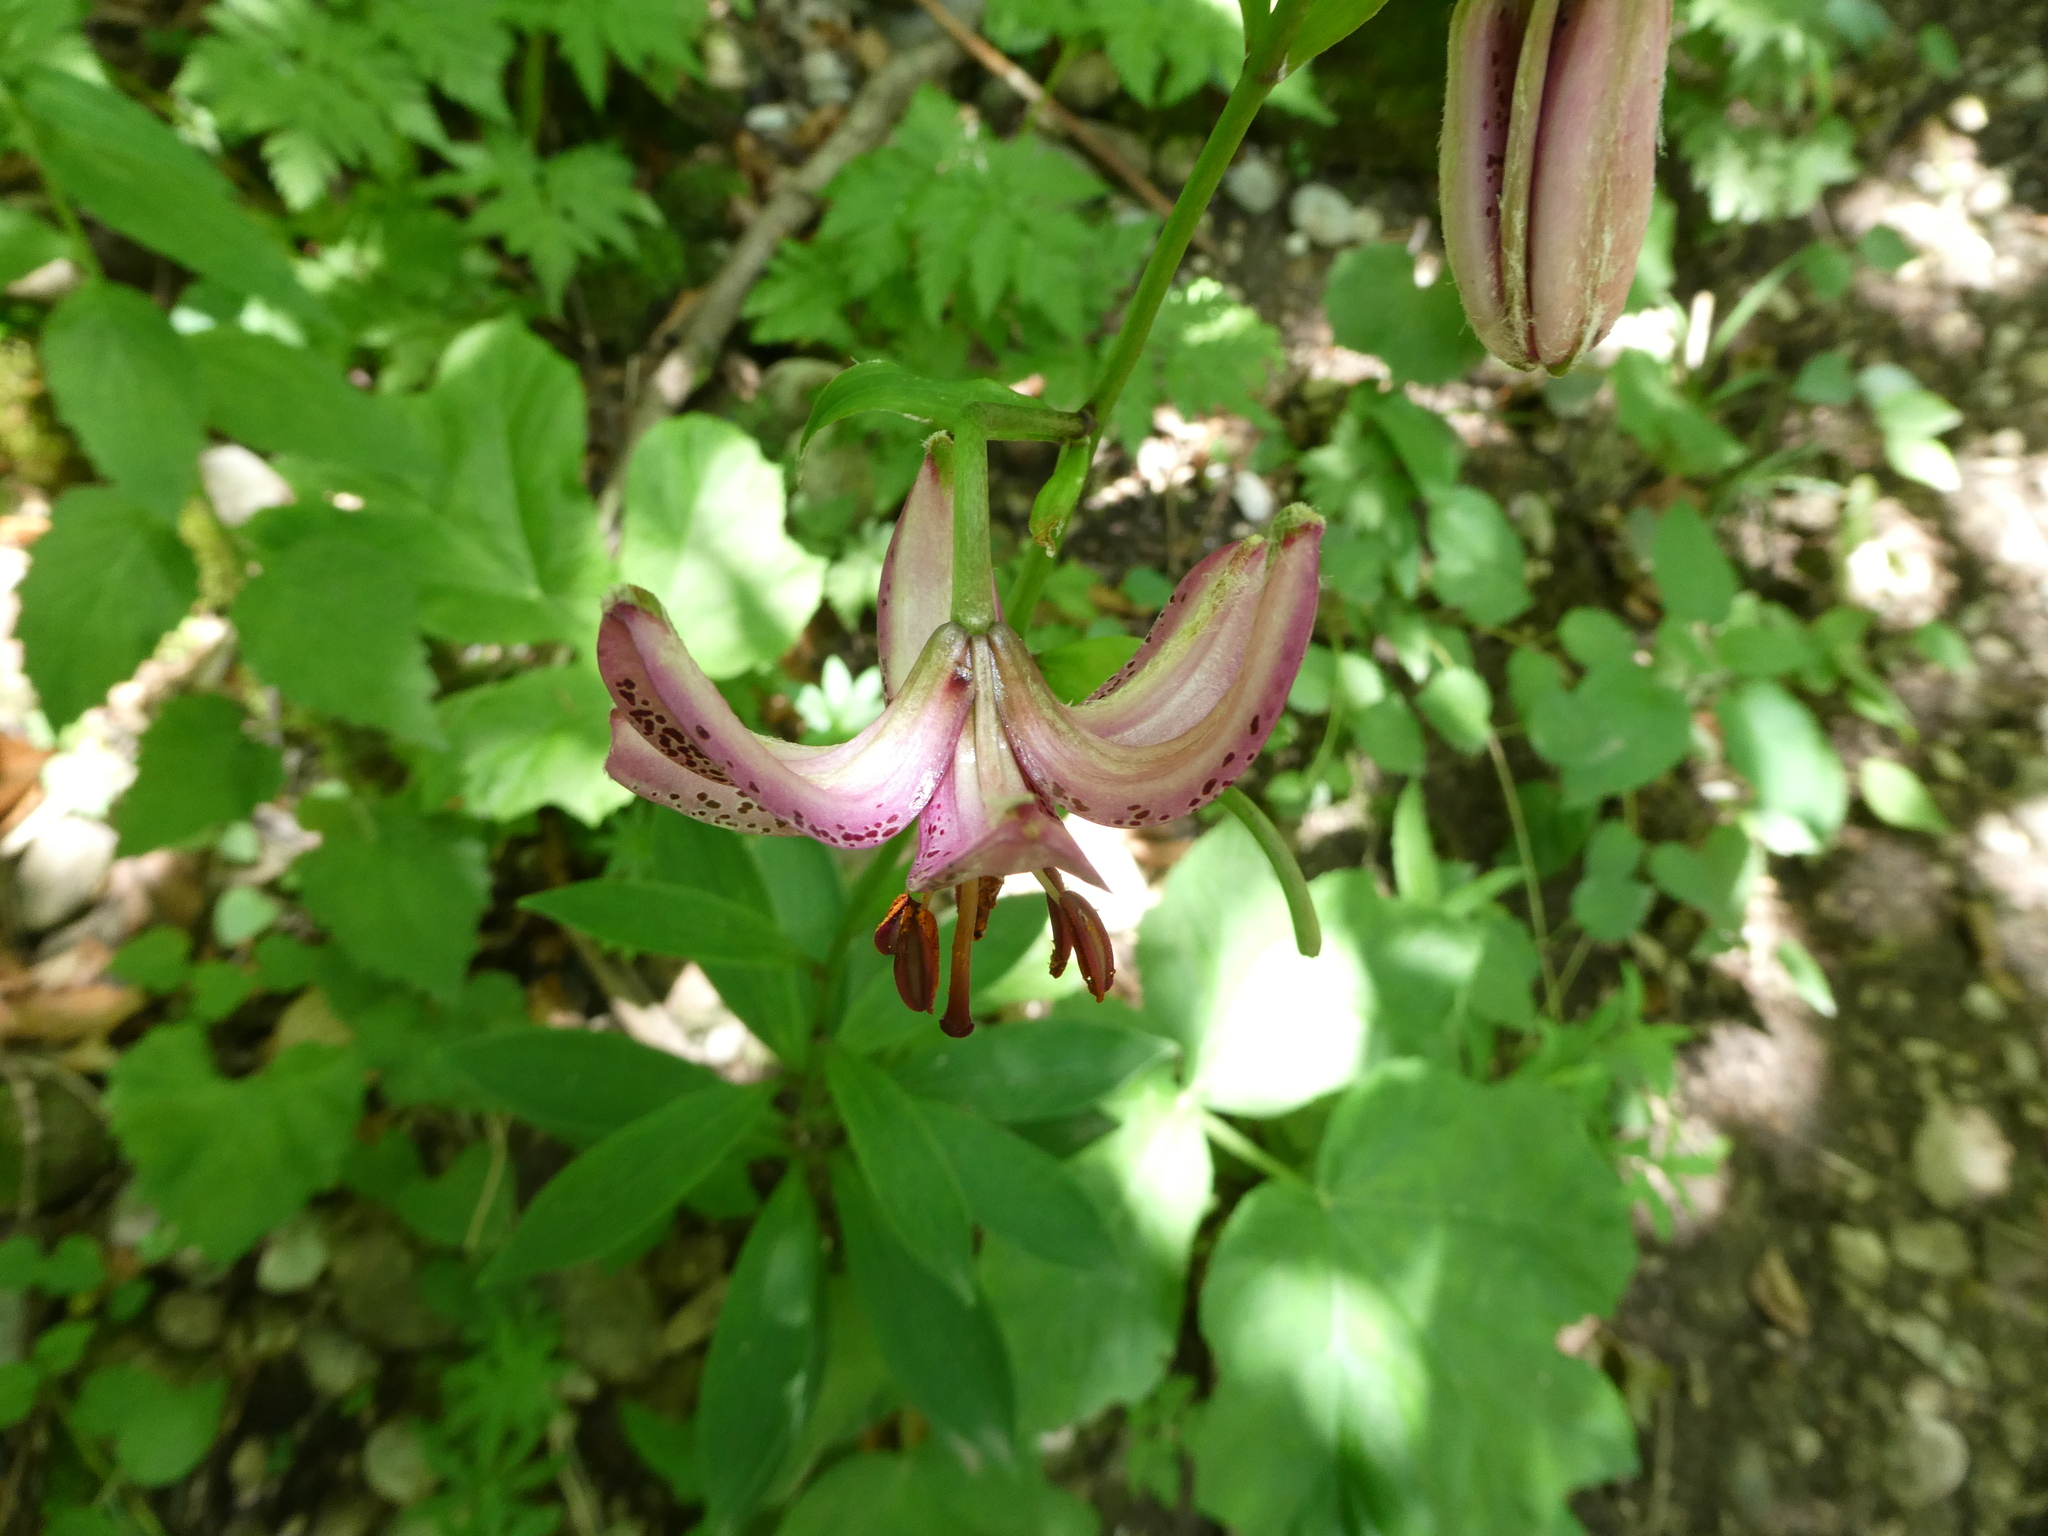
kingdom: Plantae
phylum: Tracheophyta
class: Liliopsida
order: Liliales
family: Liliaceae
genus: Lilium
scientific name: Lilium martagon
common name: Martagon lily
